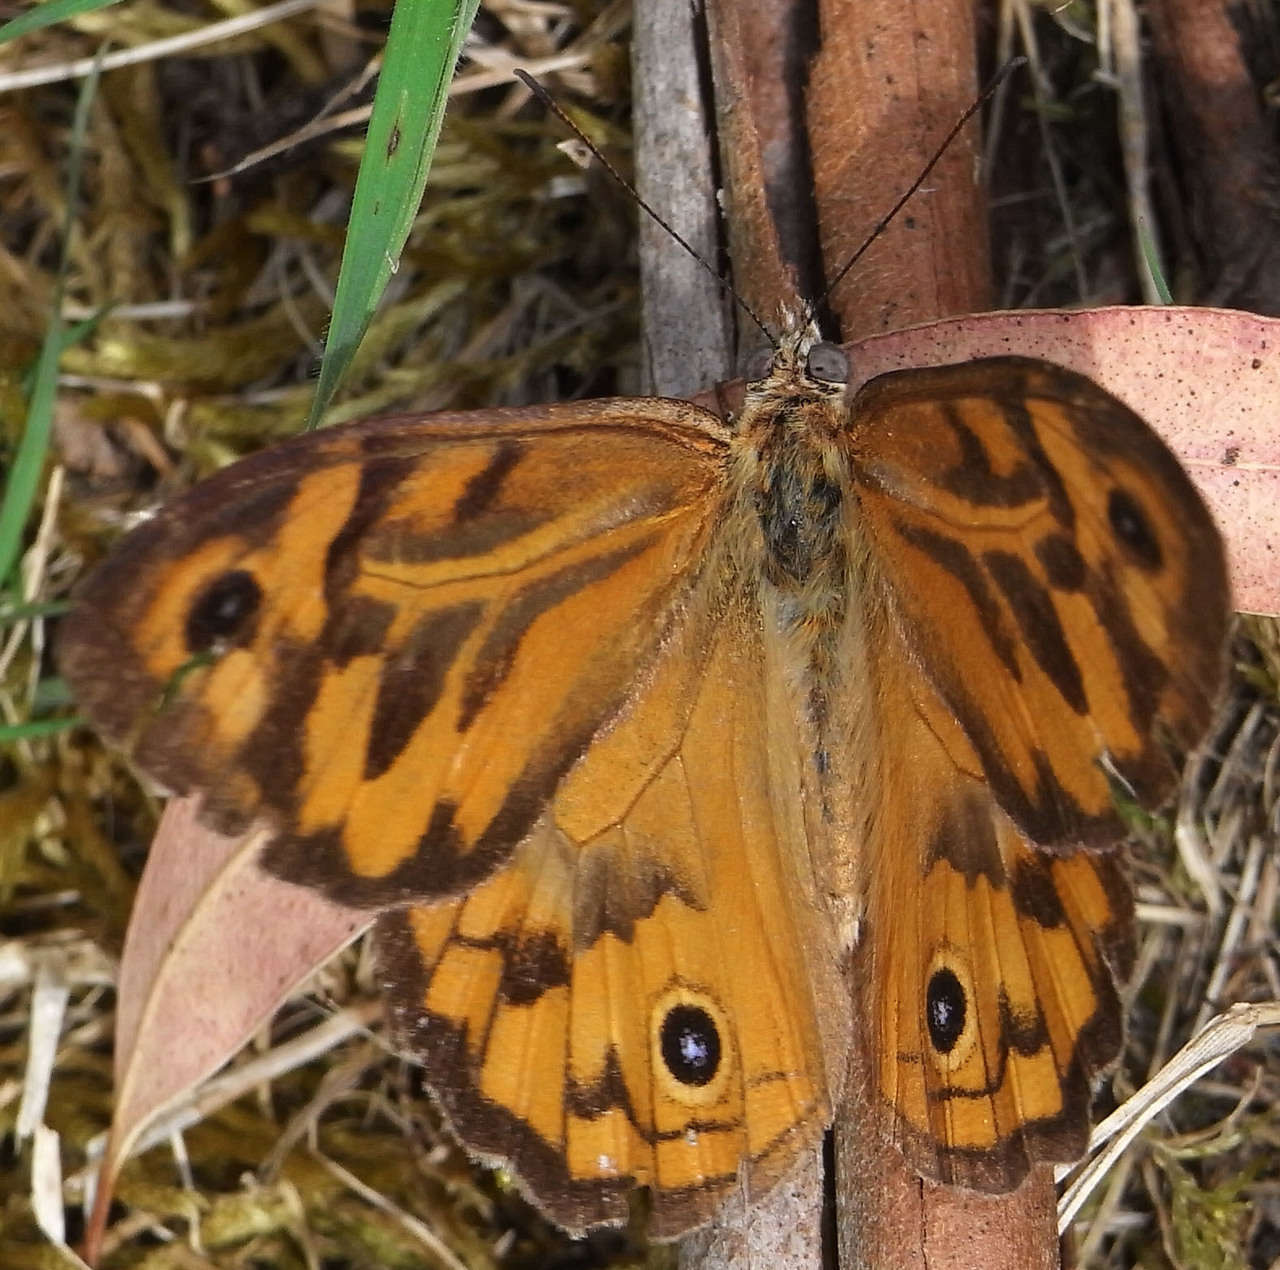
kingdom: Animalia
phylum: Arthropoda
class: Insecta
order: Lepidoptera
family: Nymphalidae
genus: Heteronympha
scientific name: Heteronympha merope
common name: Common brown
